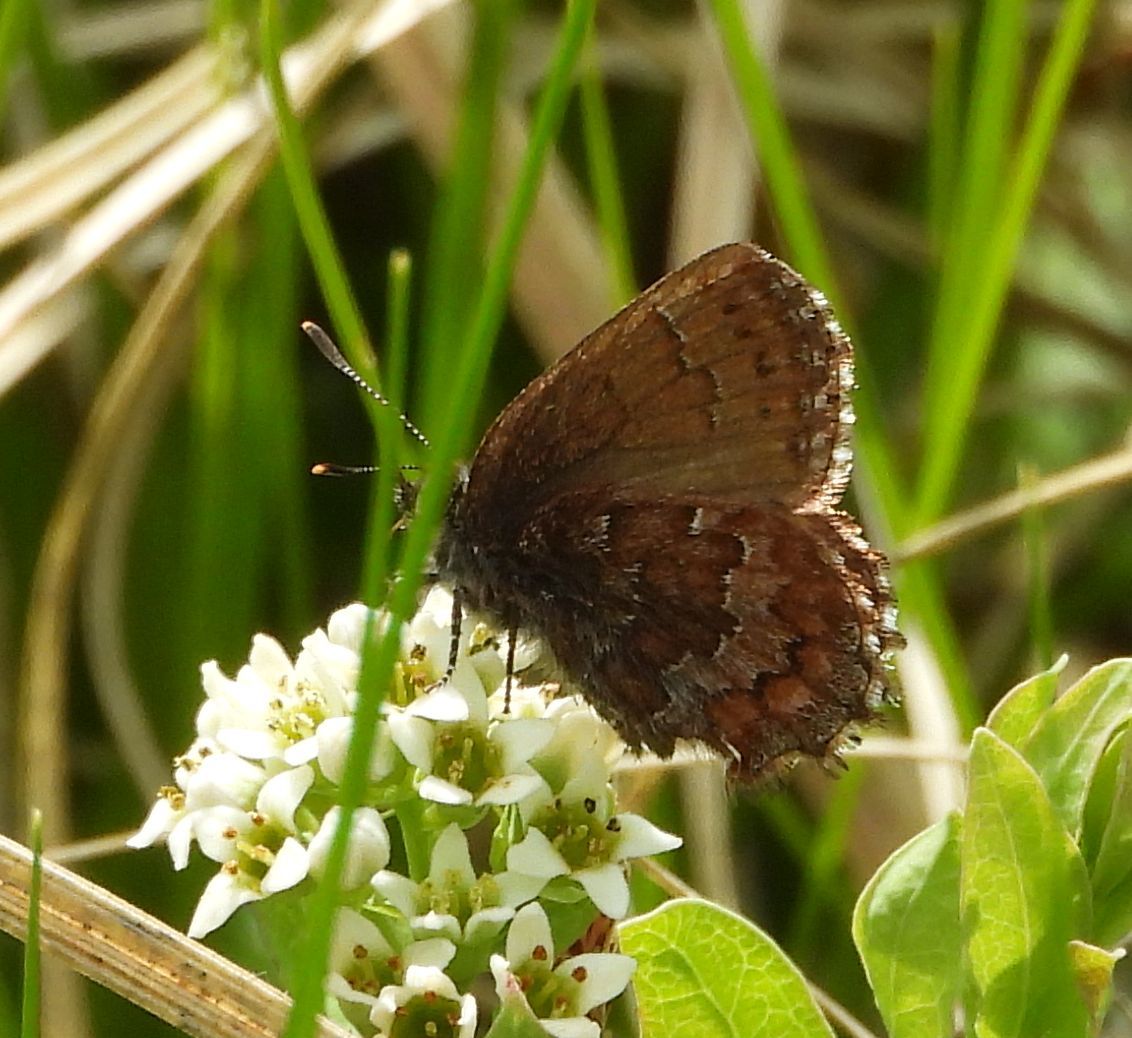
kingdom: Animalia
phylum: Arthropoda
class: Insecta
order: Lepidoptera
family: Lycaenidae
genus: Incisalia
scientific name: Incisalia niphon
